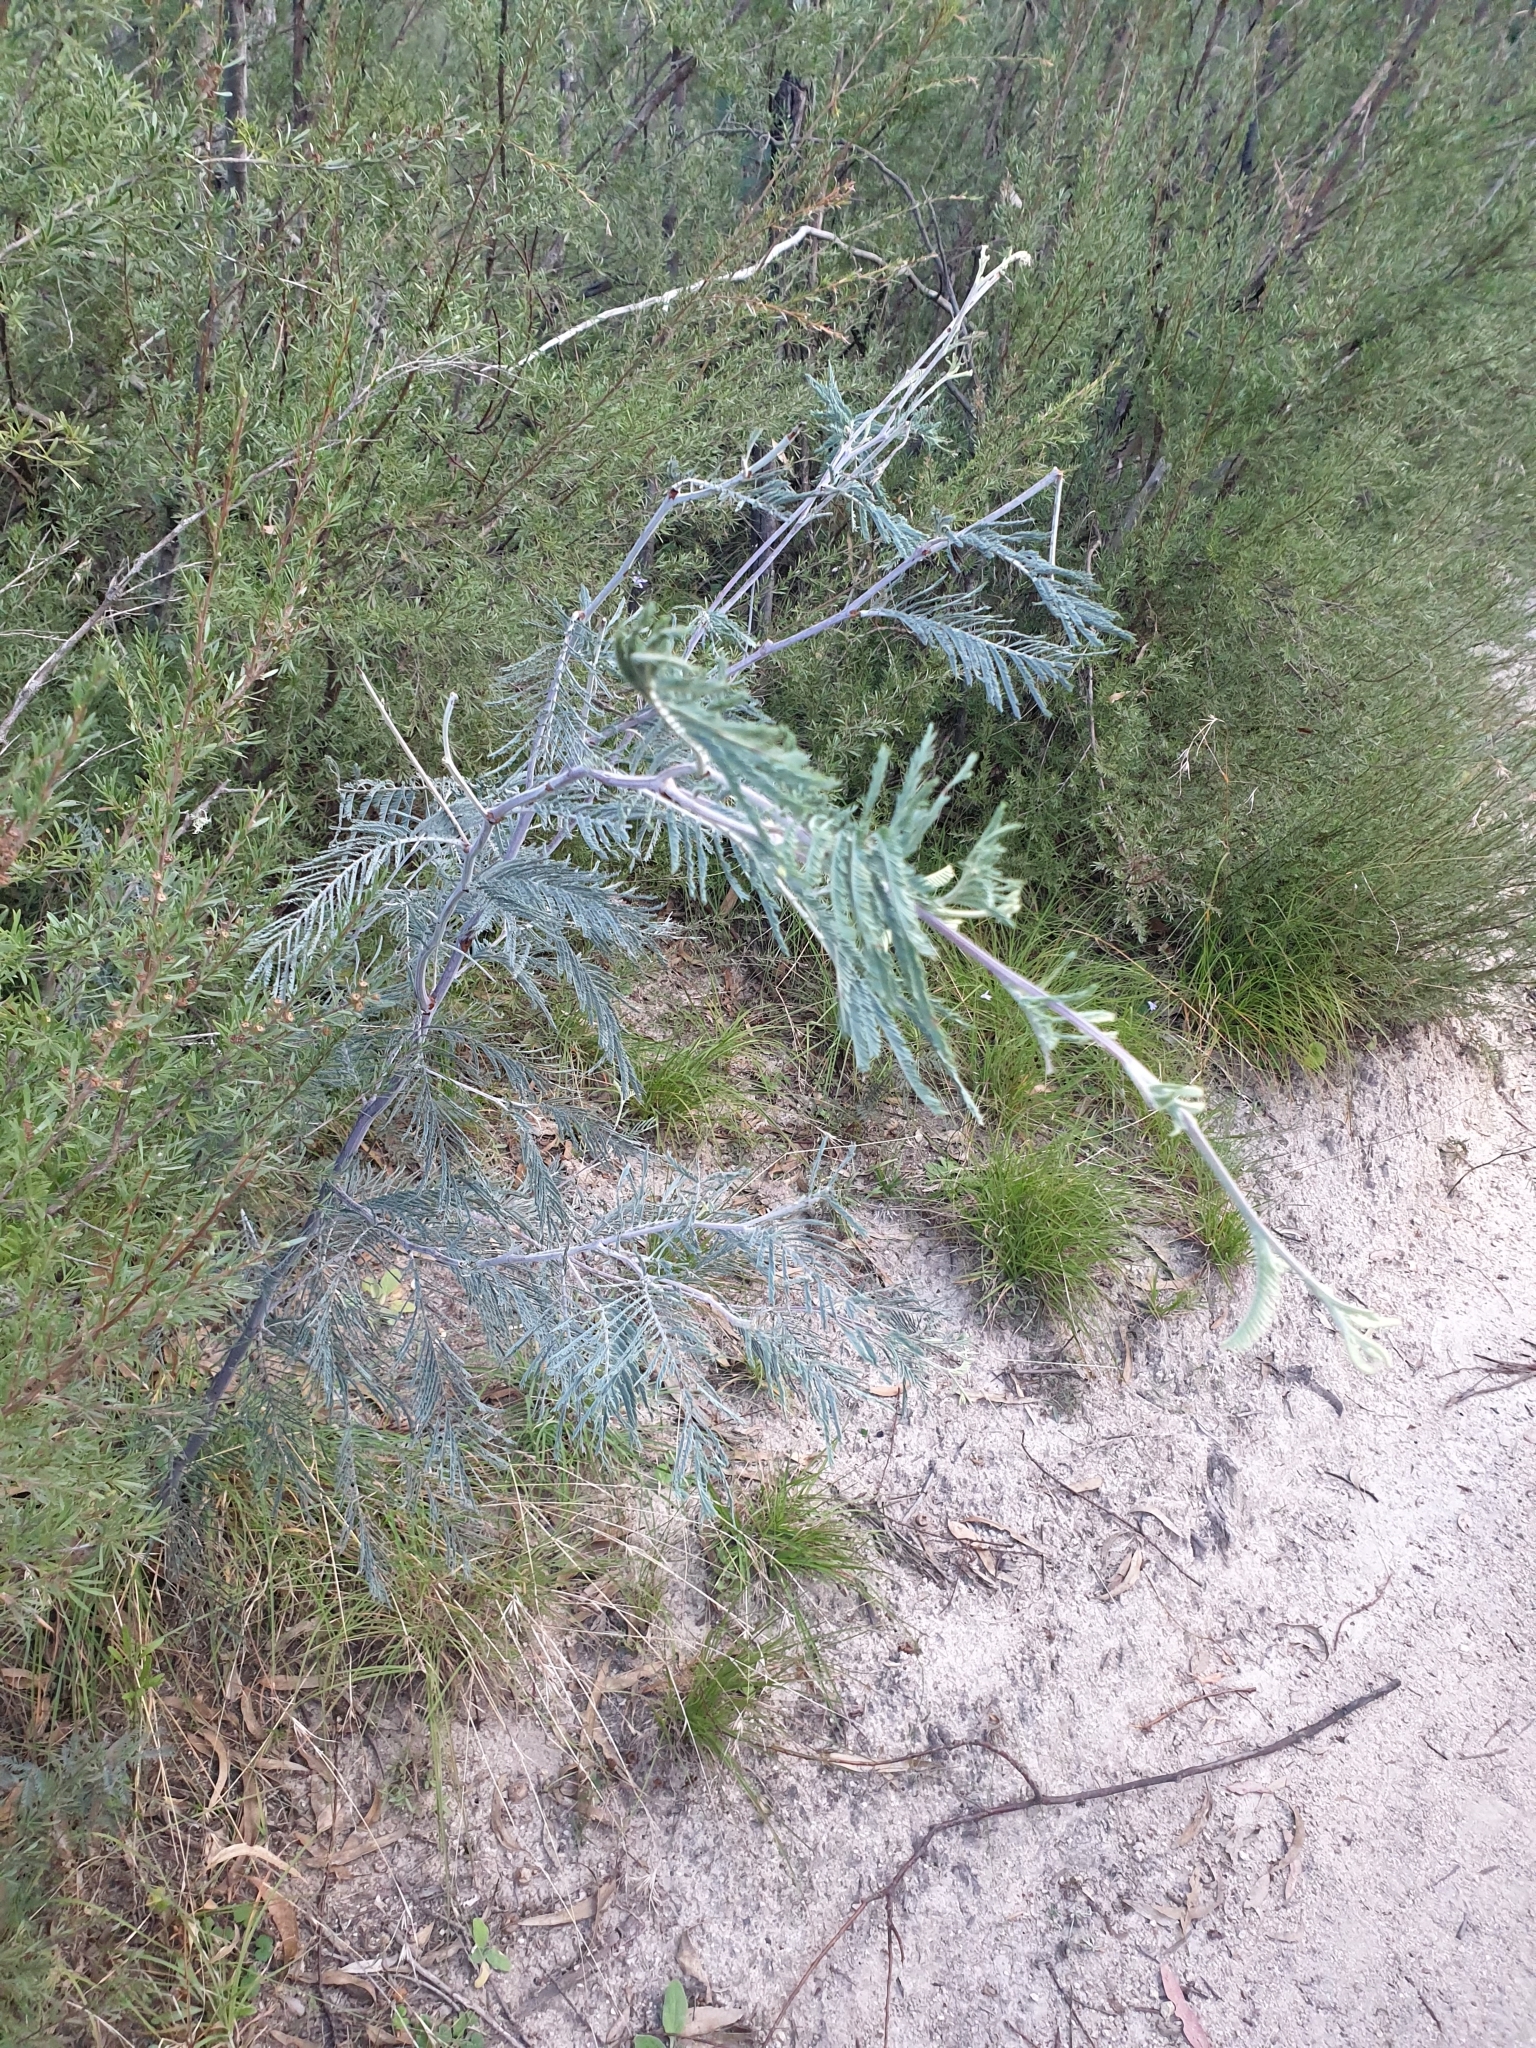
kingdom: Plantae
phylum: Tracheophyta
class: Magnoliopsida
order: Fabales
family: Fabaceae
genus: Acacia
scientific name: Acacia dealbata
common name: Silver wattle
